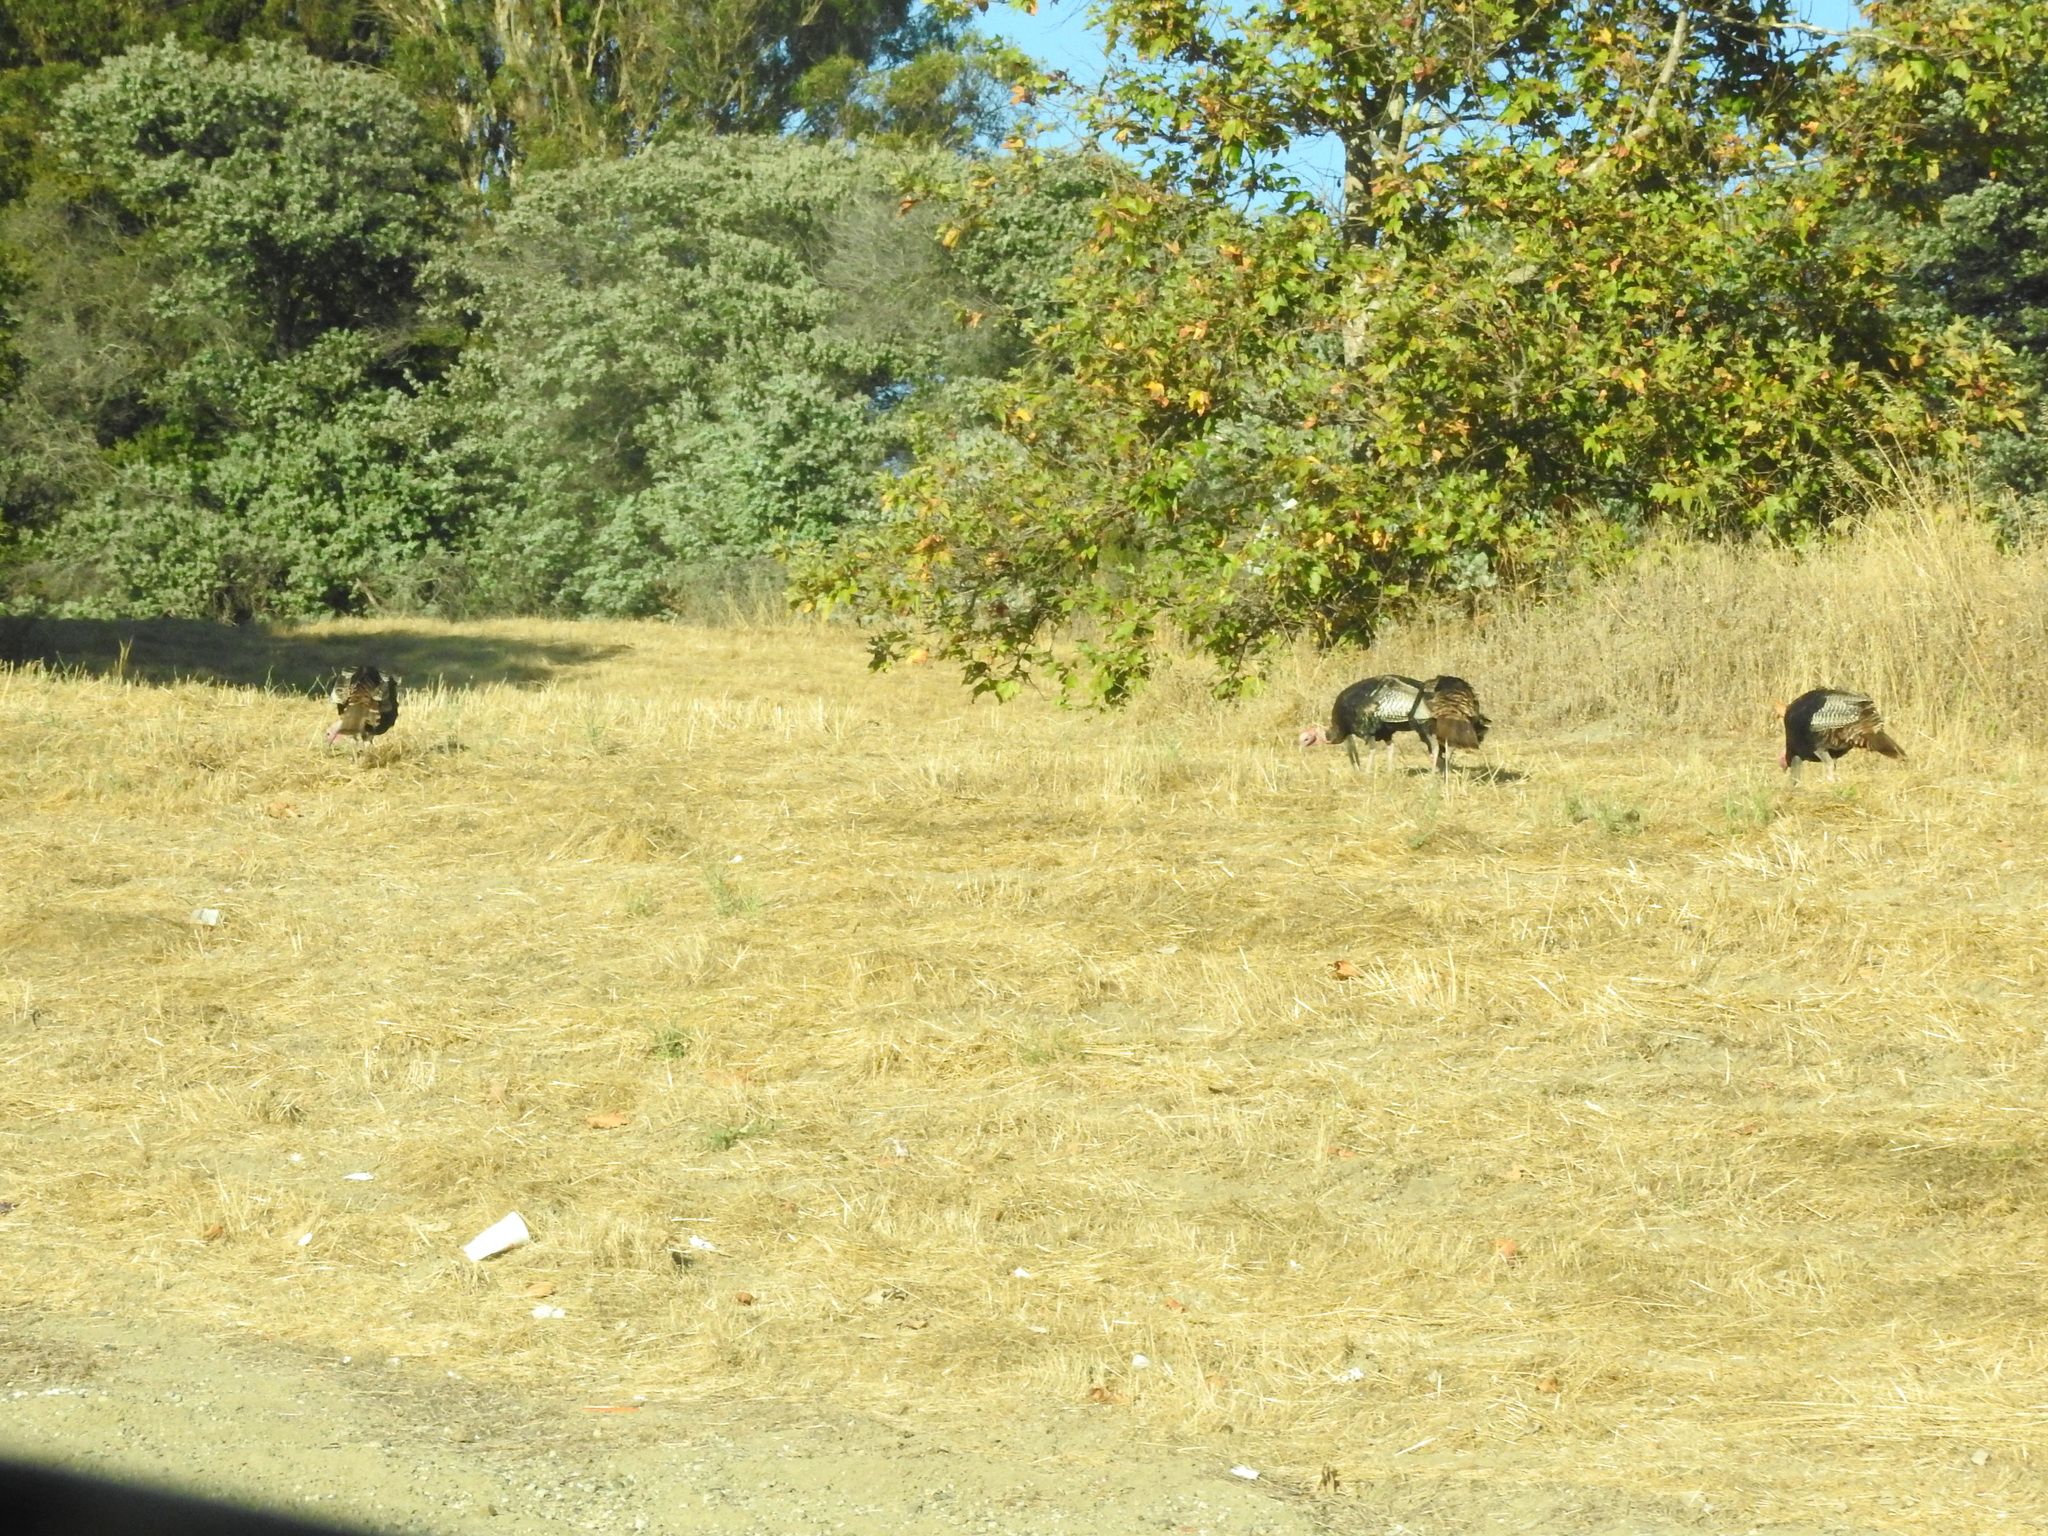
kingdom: Animalia
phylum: Chordata
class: Aves
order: Galliformes
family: Phasianidae
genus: Meleagris
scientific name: Meleagris gallopavo
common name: Wild turkey
